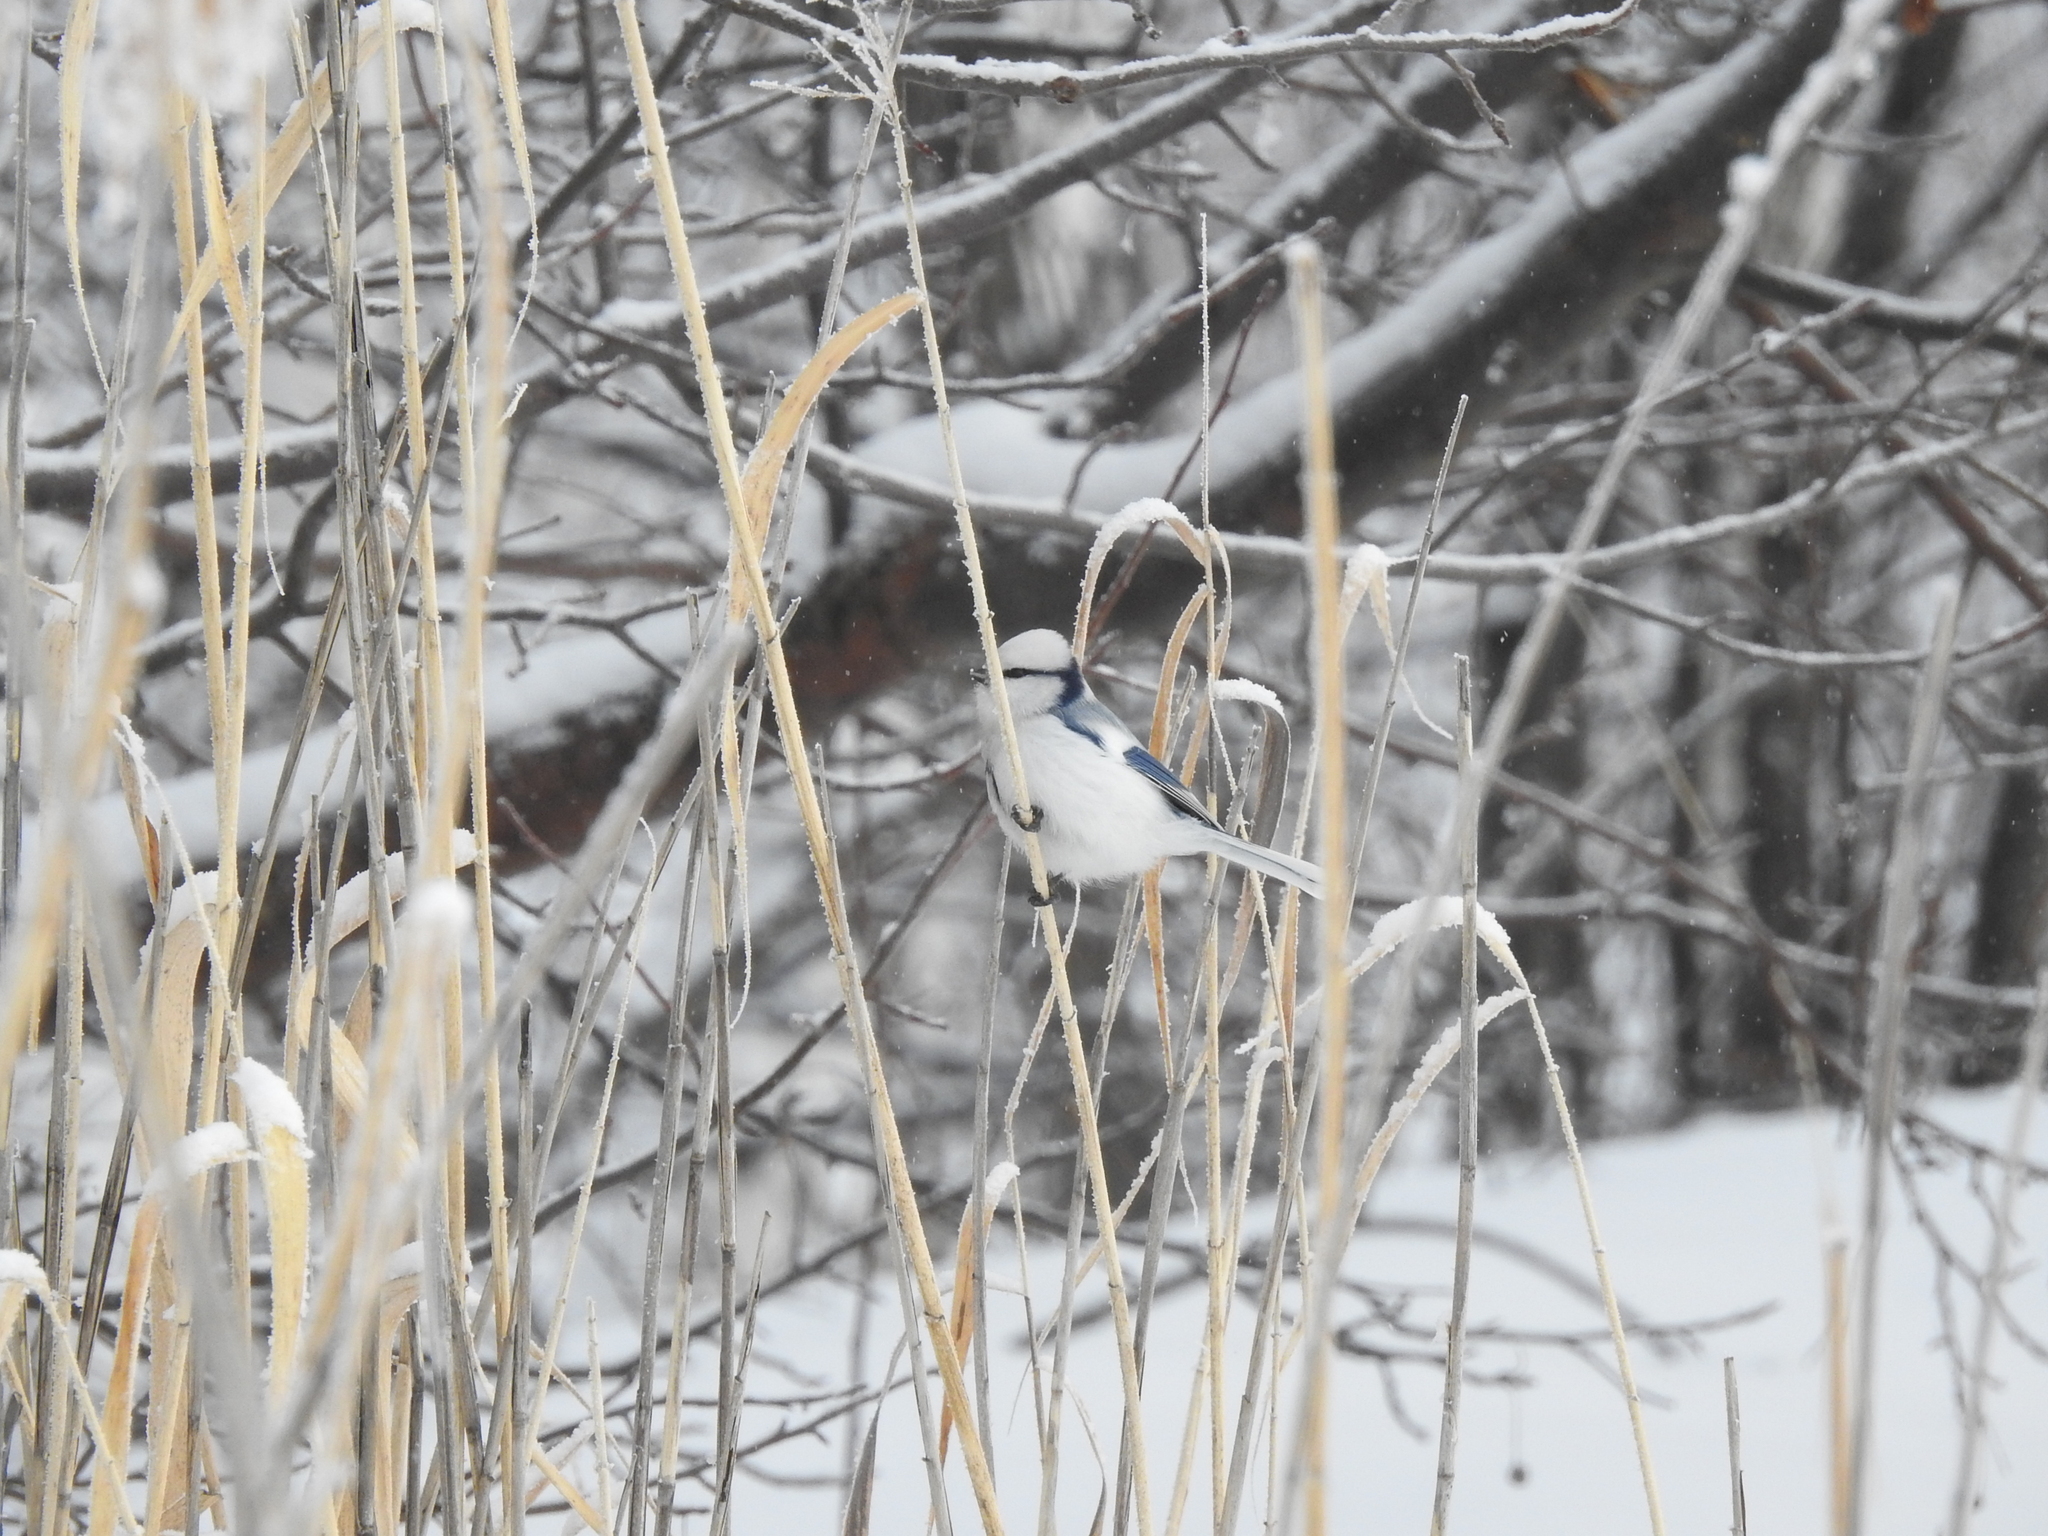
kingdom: Animalia
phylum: Chordata
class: Aves
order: Passeriformes
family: Paridae
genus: Cyanistes
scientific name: Cyanistes cyanus
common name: Azure tit
